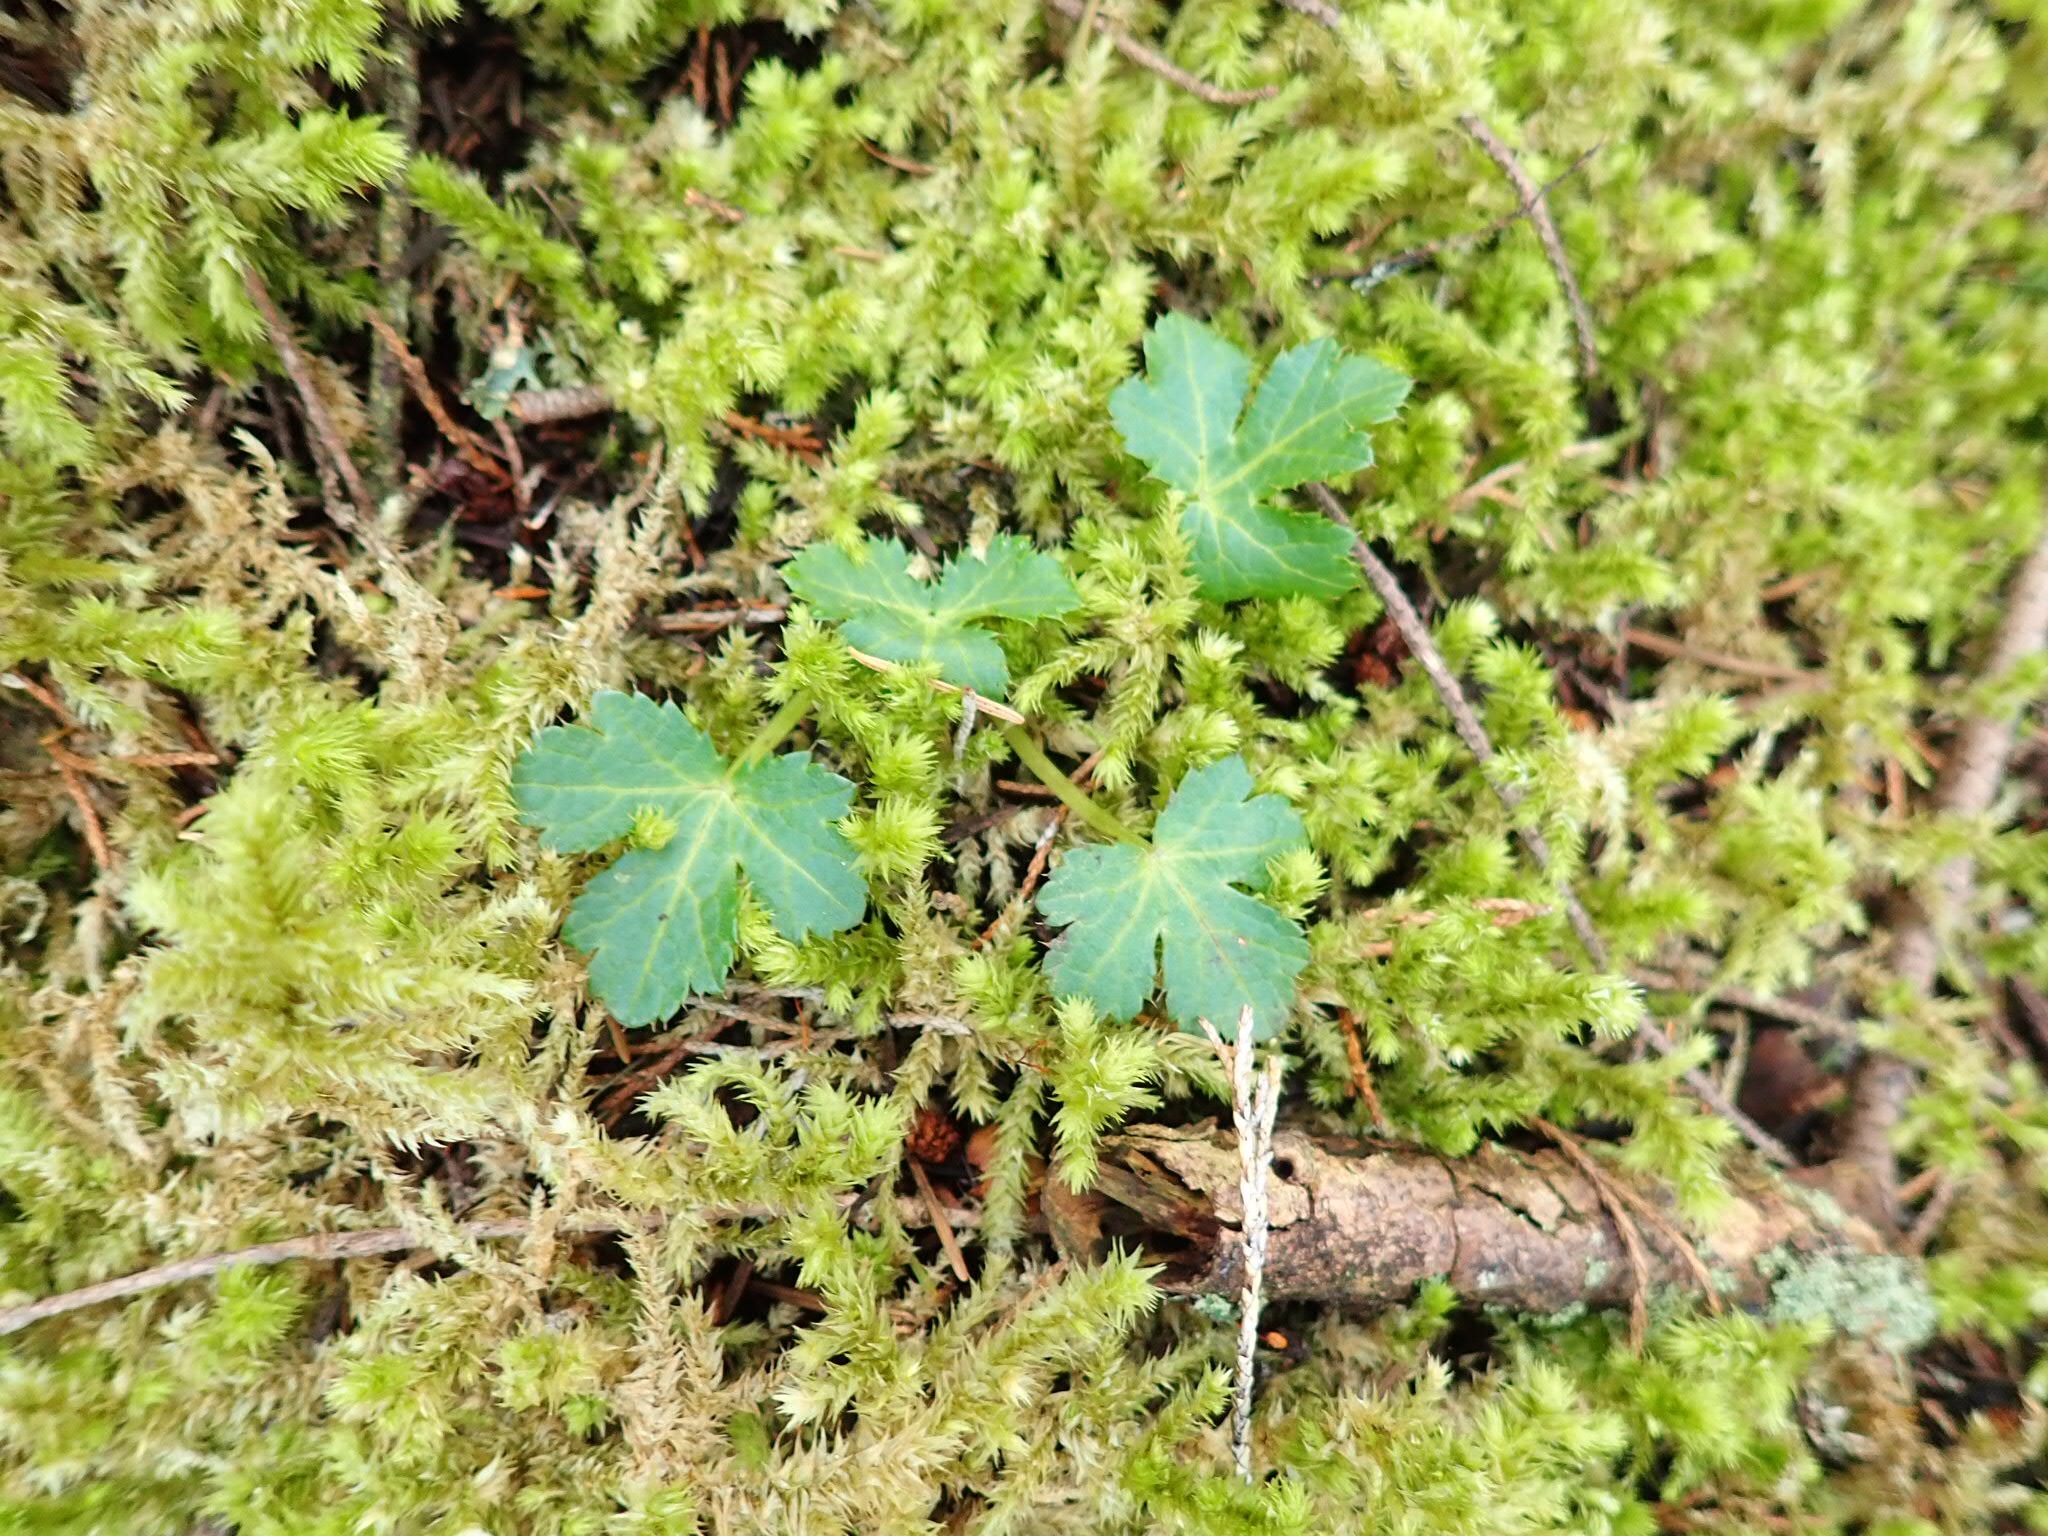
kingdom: Plantae
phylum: Tracheophyta
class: Magnoliopsida
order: Apiales
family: Apiaceae
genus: Sanicula
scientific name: Sanicula crassicaulis
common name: Western snakeroot
